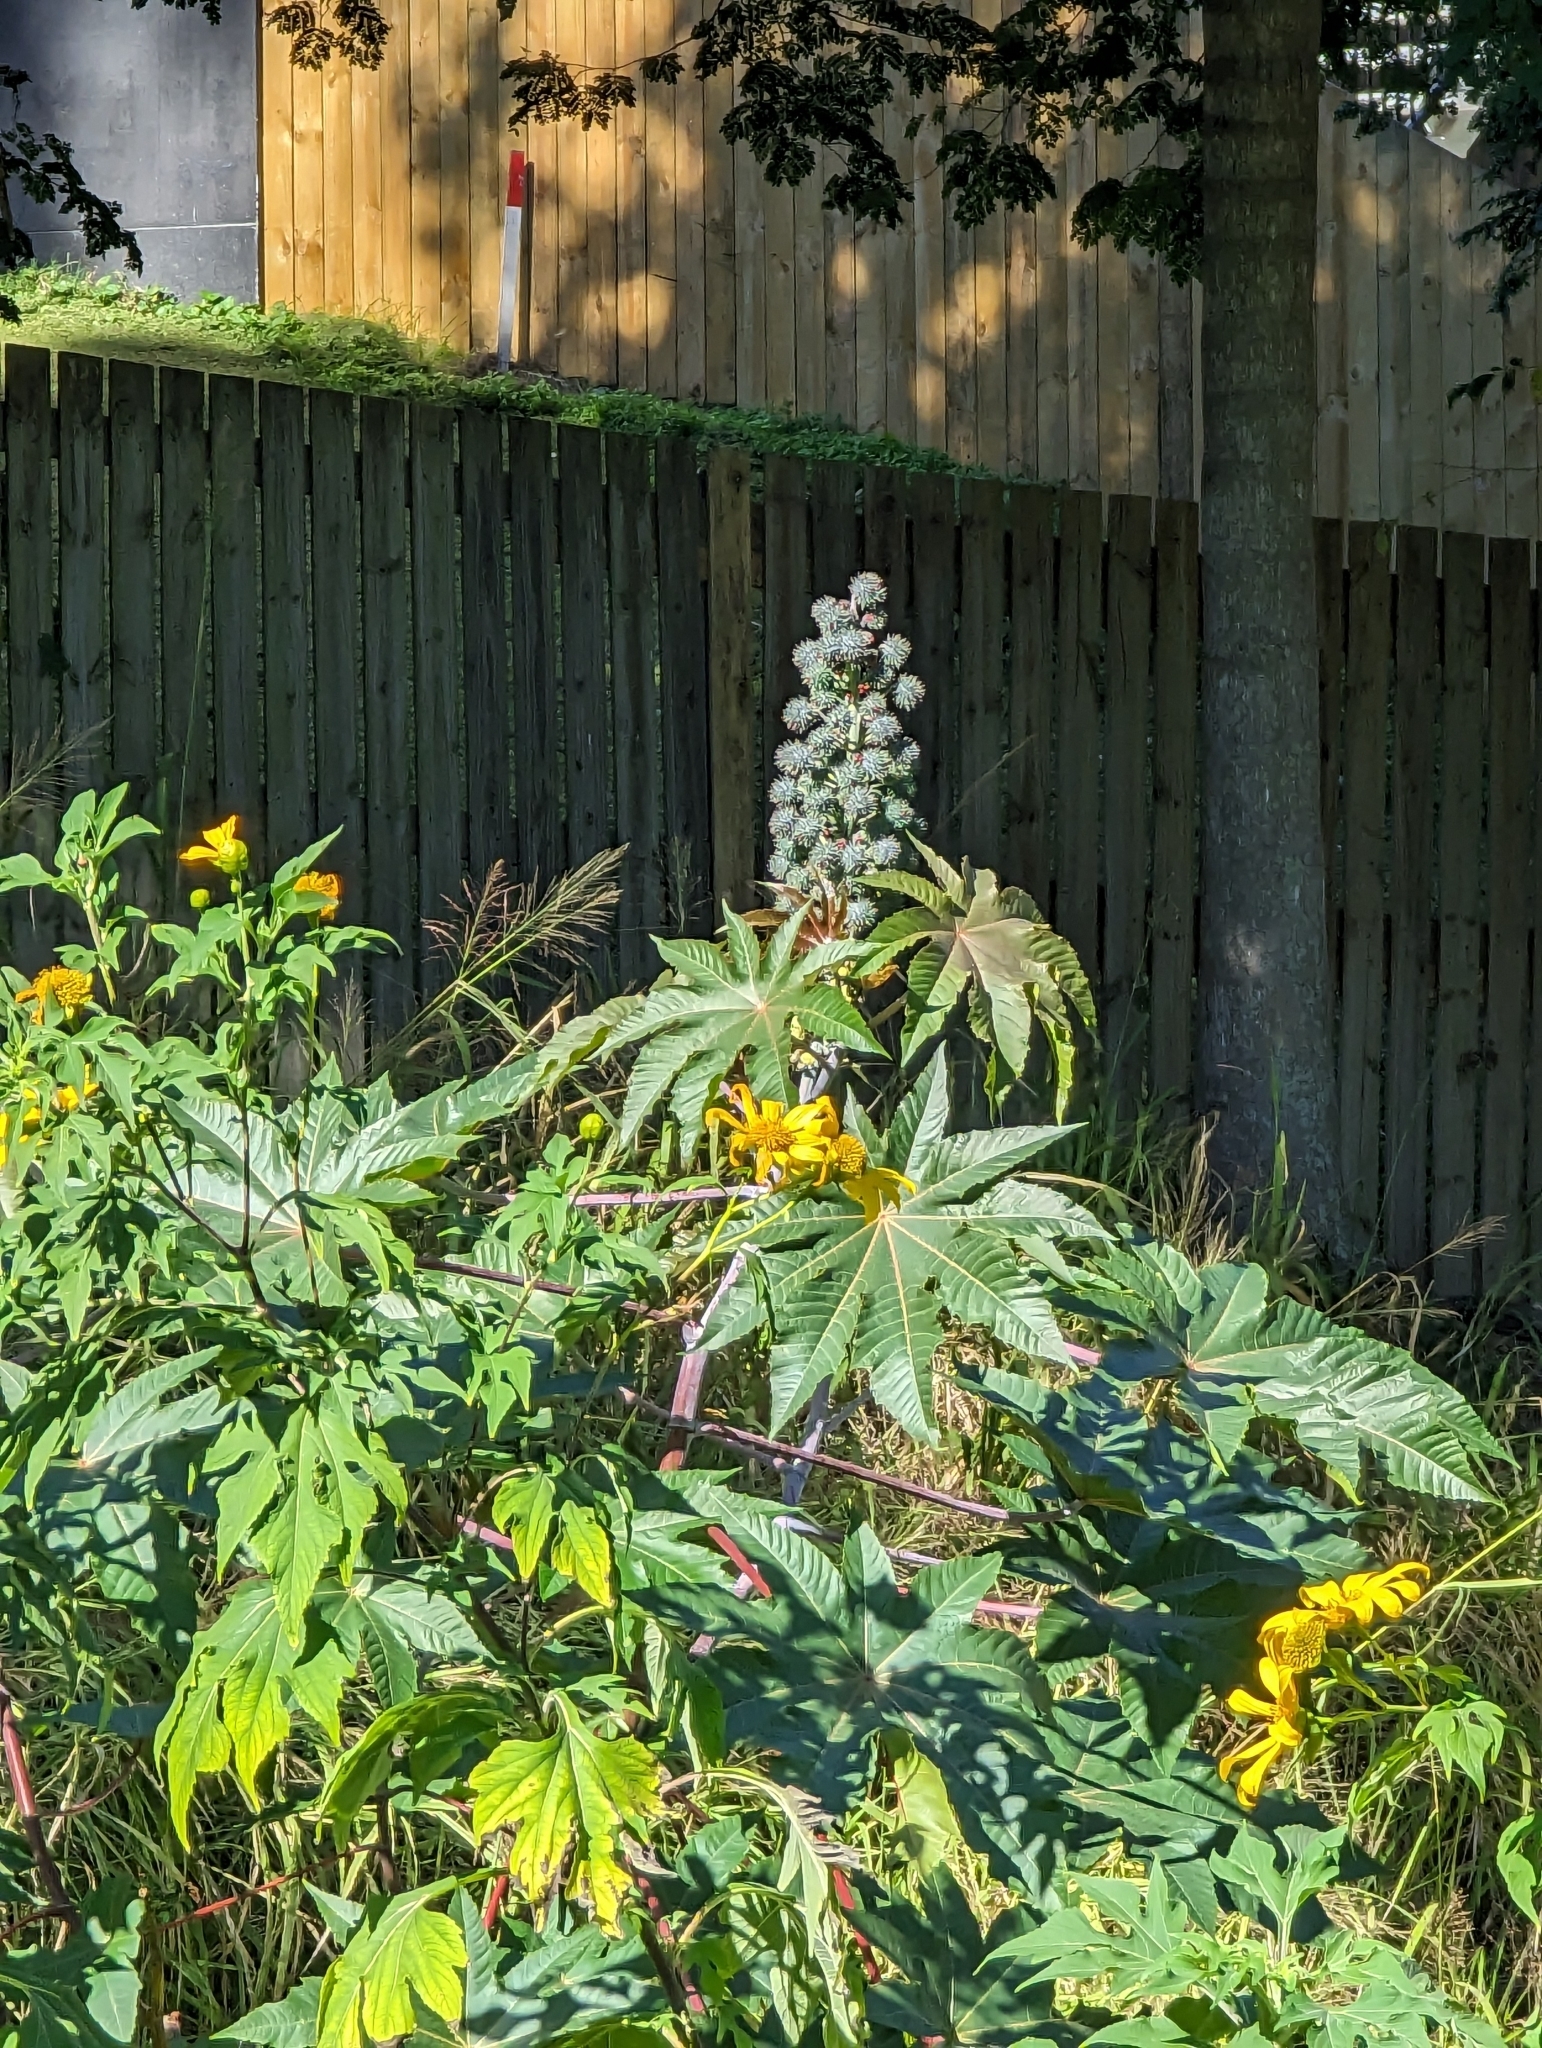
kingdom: Plantae
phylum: Tracheophyta
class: Magnoliopsida
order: Malpighiales
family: Euphorbiaceae
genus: Ricinus
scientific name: Ricinus communis
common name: Castor-oil-plant
